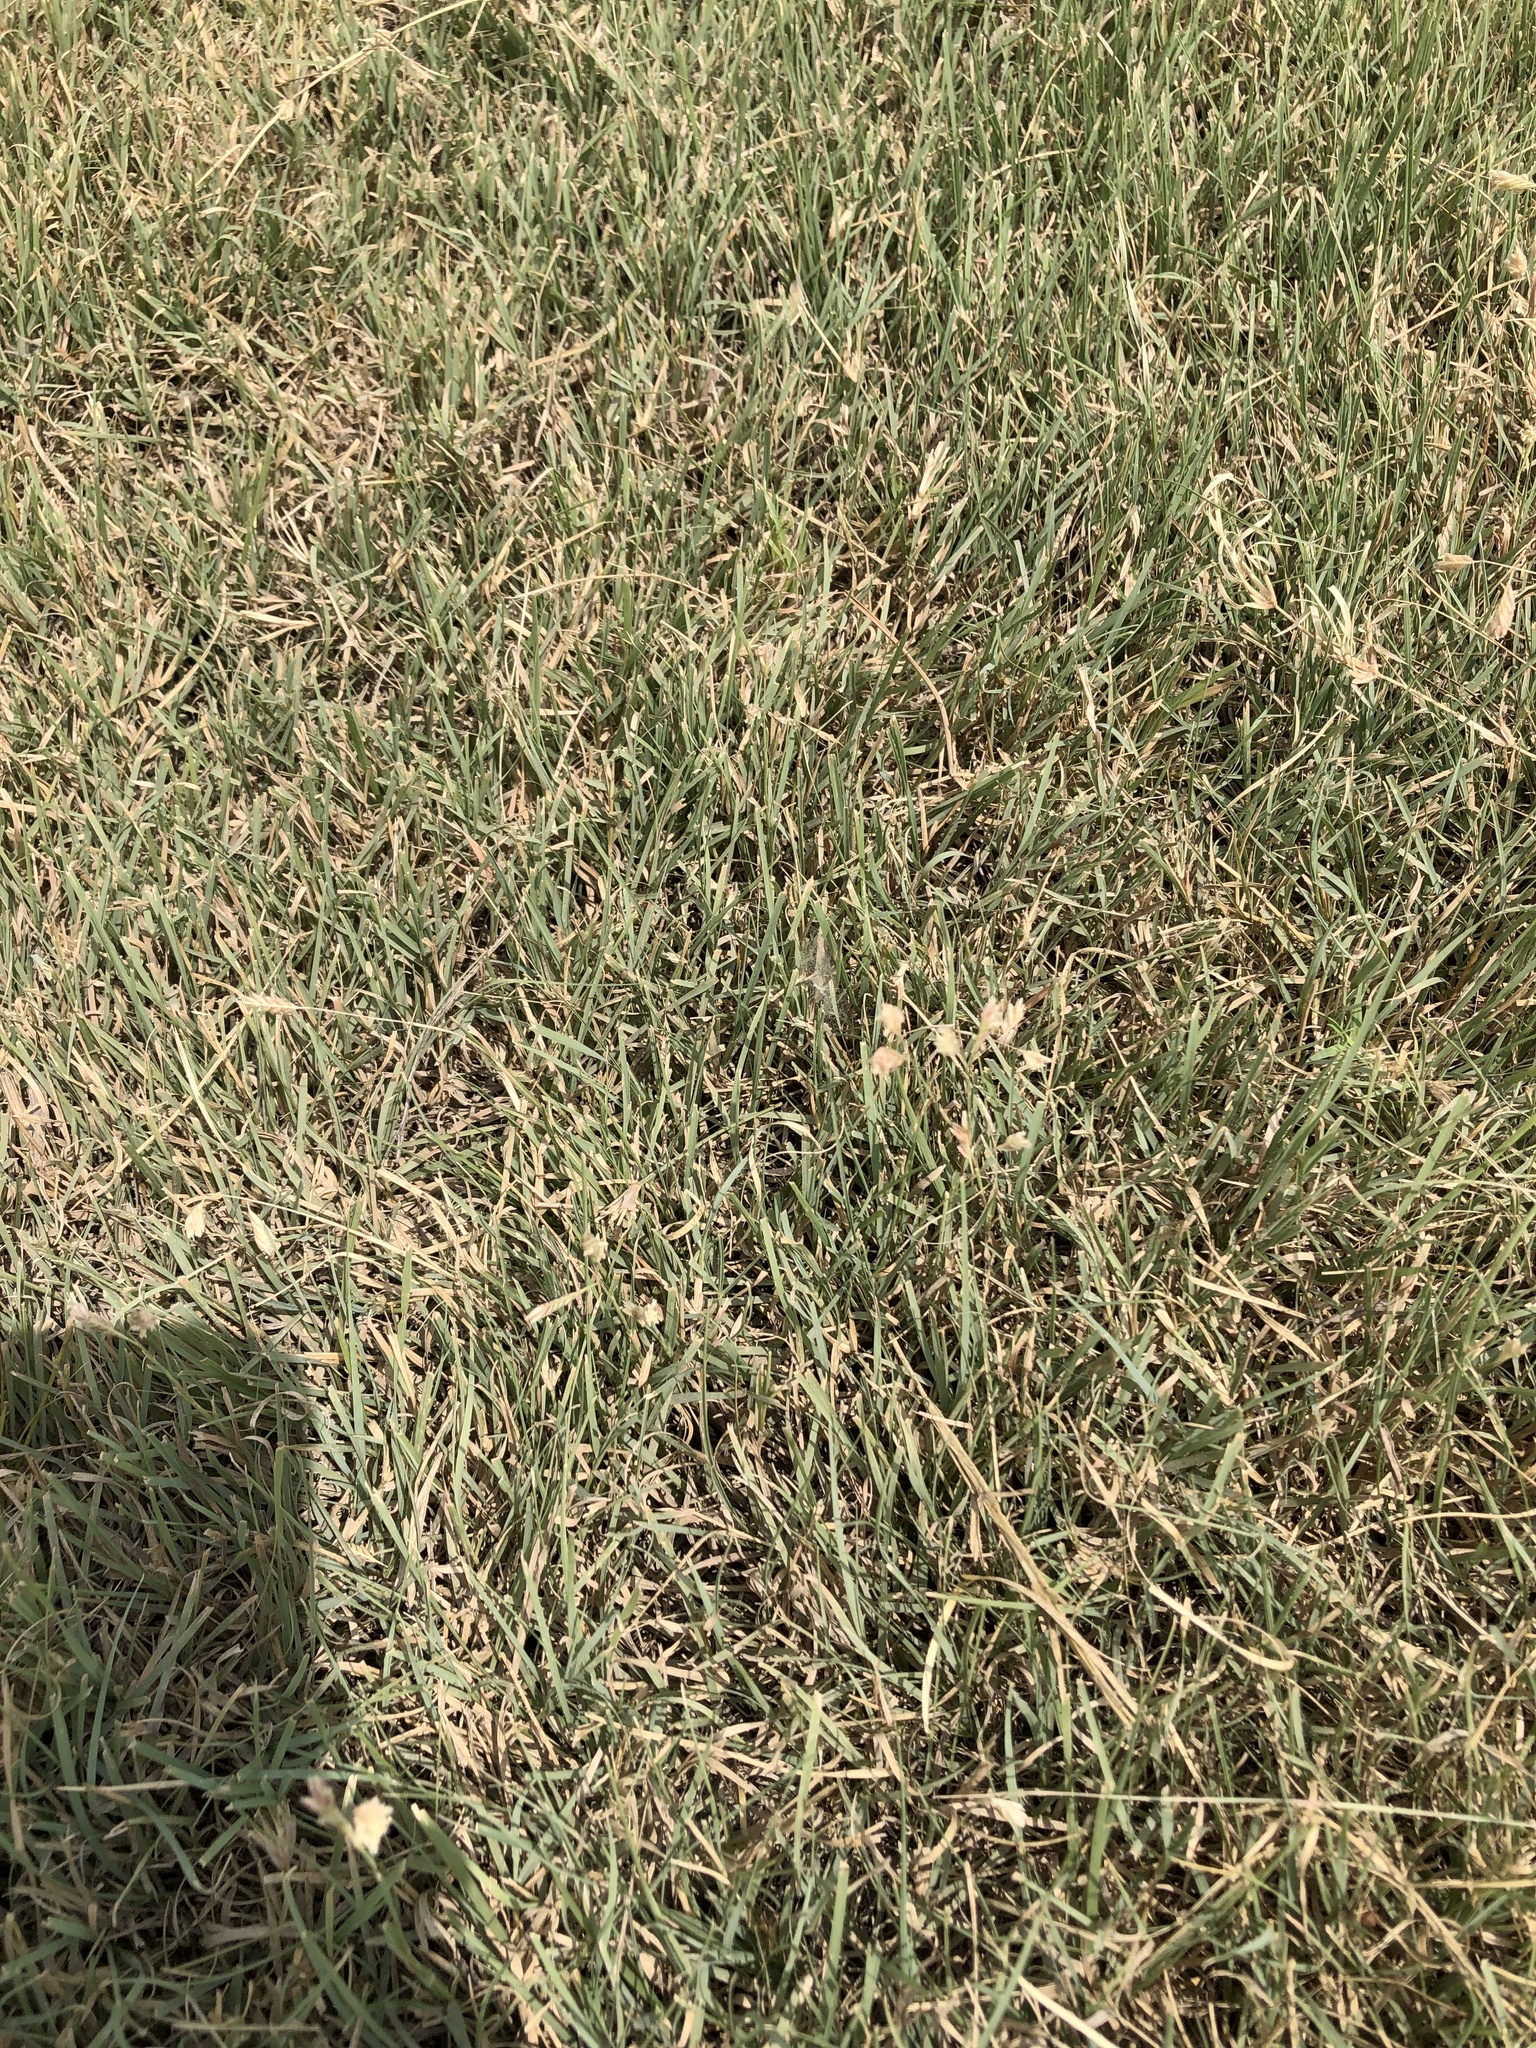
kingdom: Plantae
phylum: Tracheophyta
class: Liliopsida
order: Poales
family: Poaceae
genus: Bouteloua
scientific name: Bouteloua dactyloides
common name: Buffalo grass
